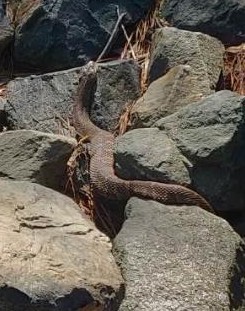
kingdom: Animalia
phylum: Chordata
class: Squamata
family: Colubridae
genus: Nerodia
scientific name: Nerodia sipedon
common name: Northern water snake
